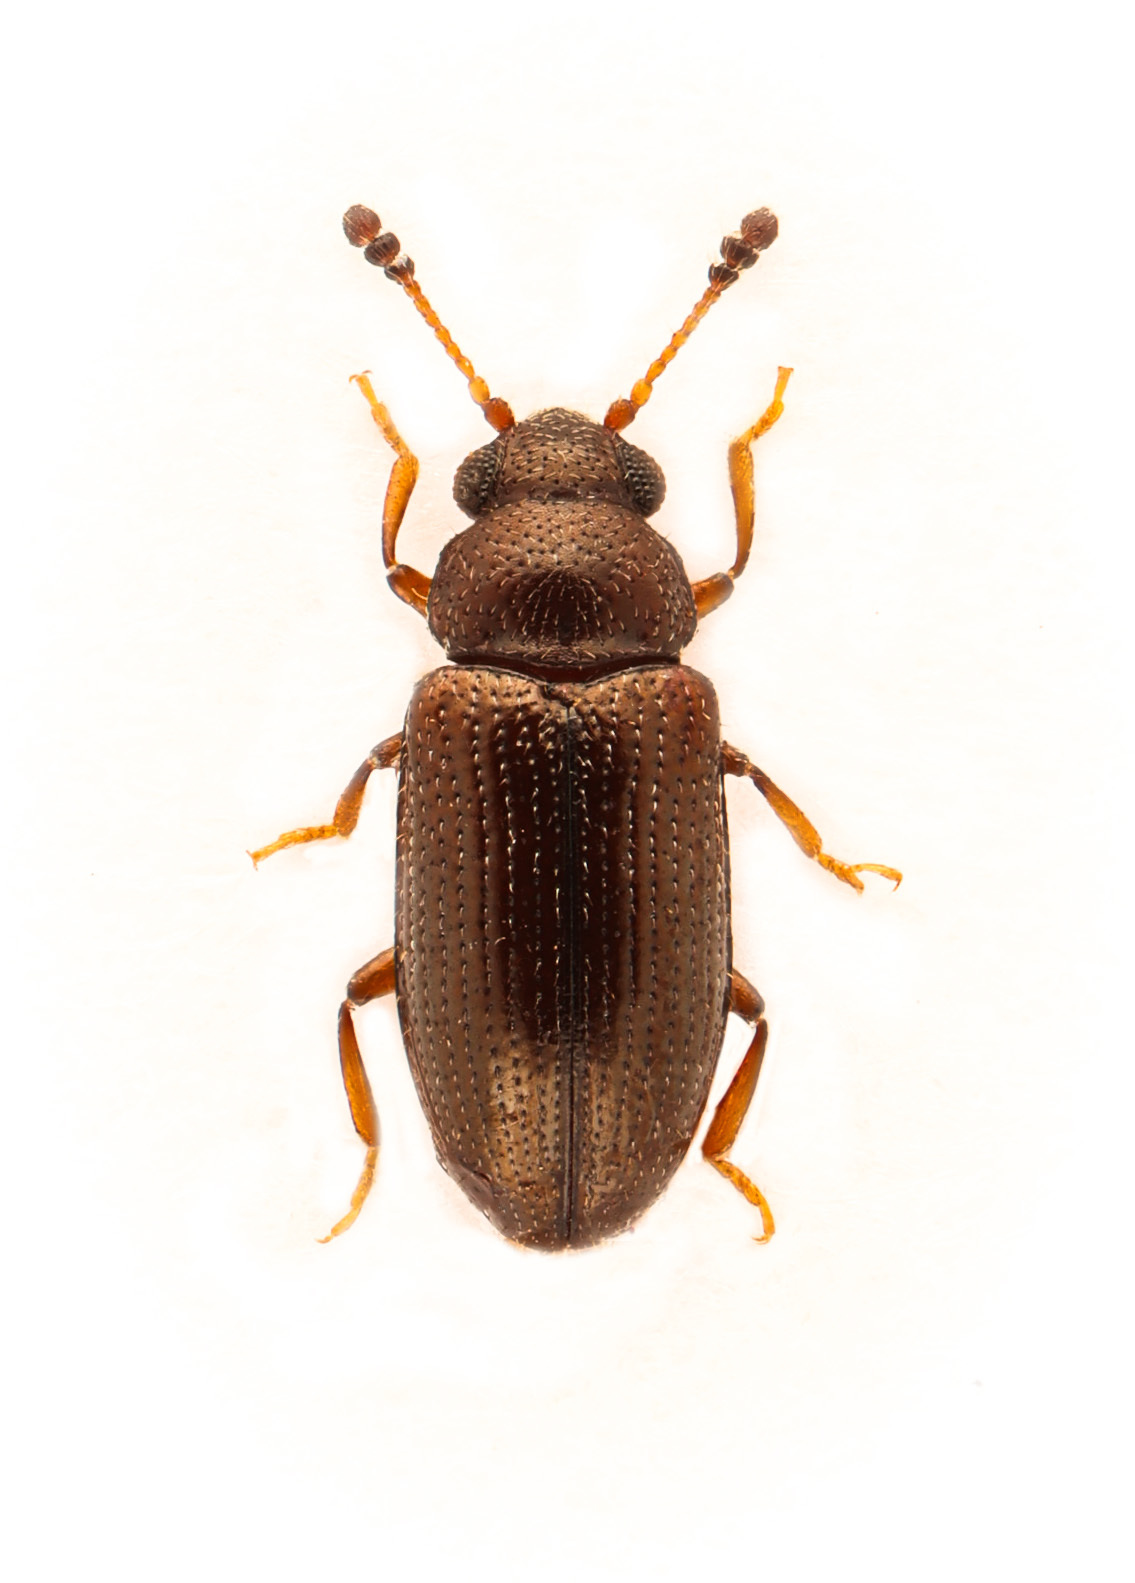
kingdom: Animalia
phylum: Arthropoda
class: Insecta
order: Coleoptera
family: Erotylidae
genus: Loberus
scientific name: Loberus testaceus
